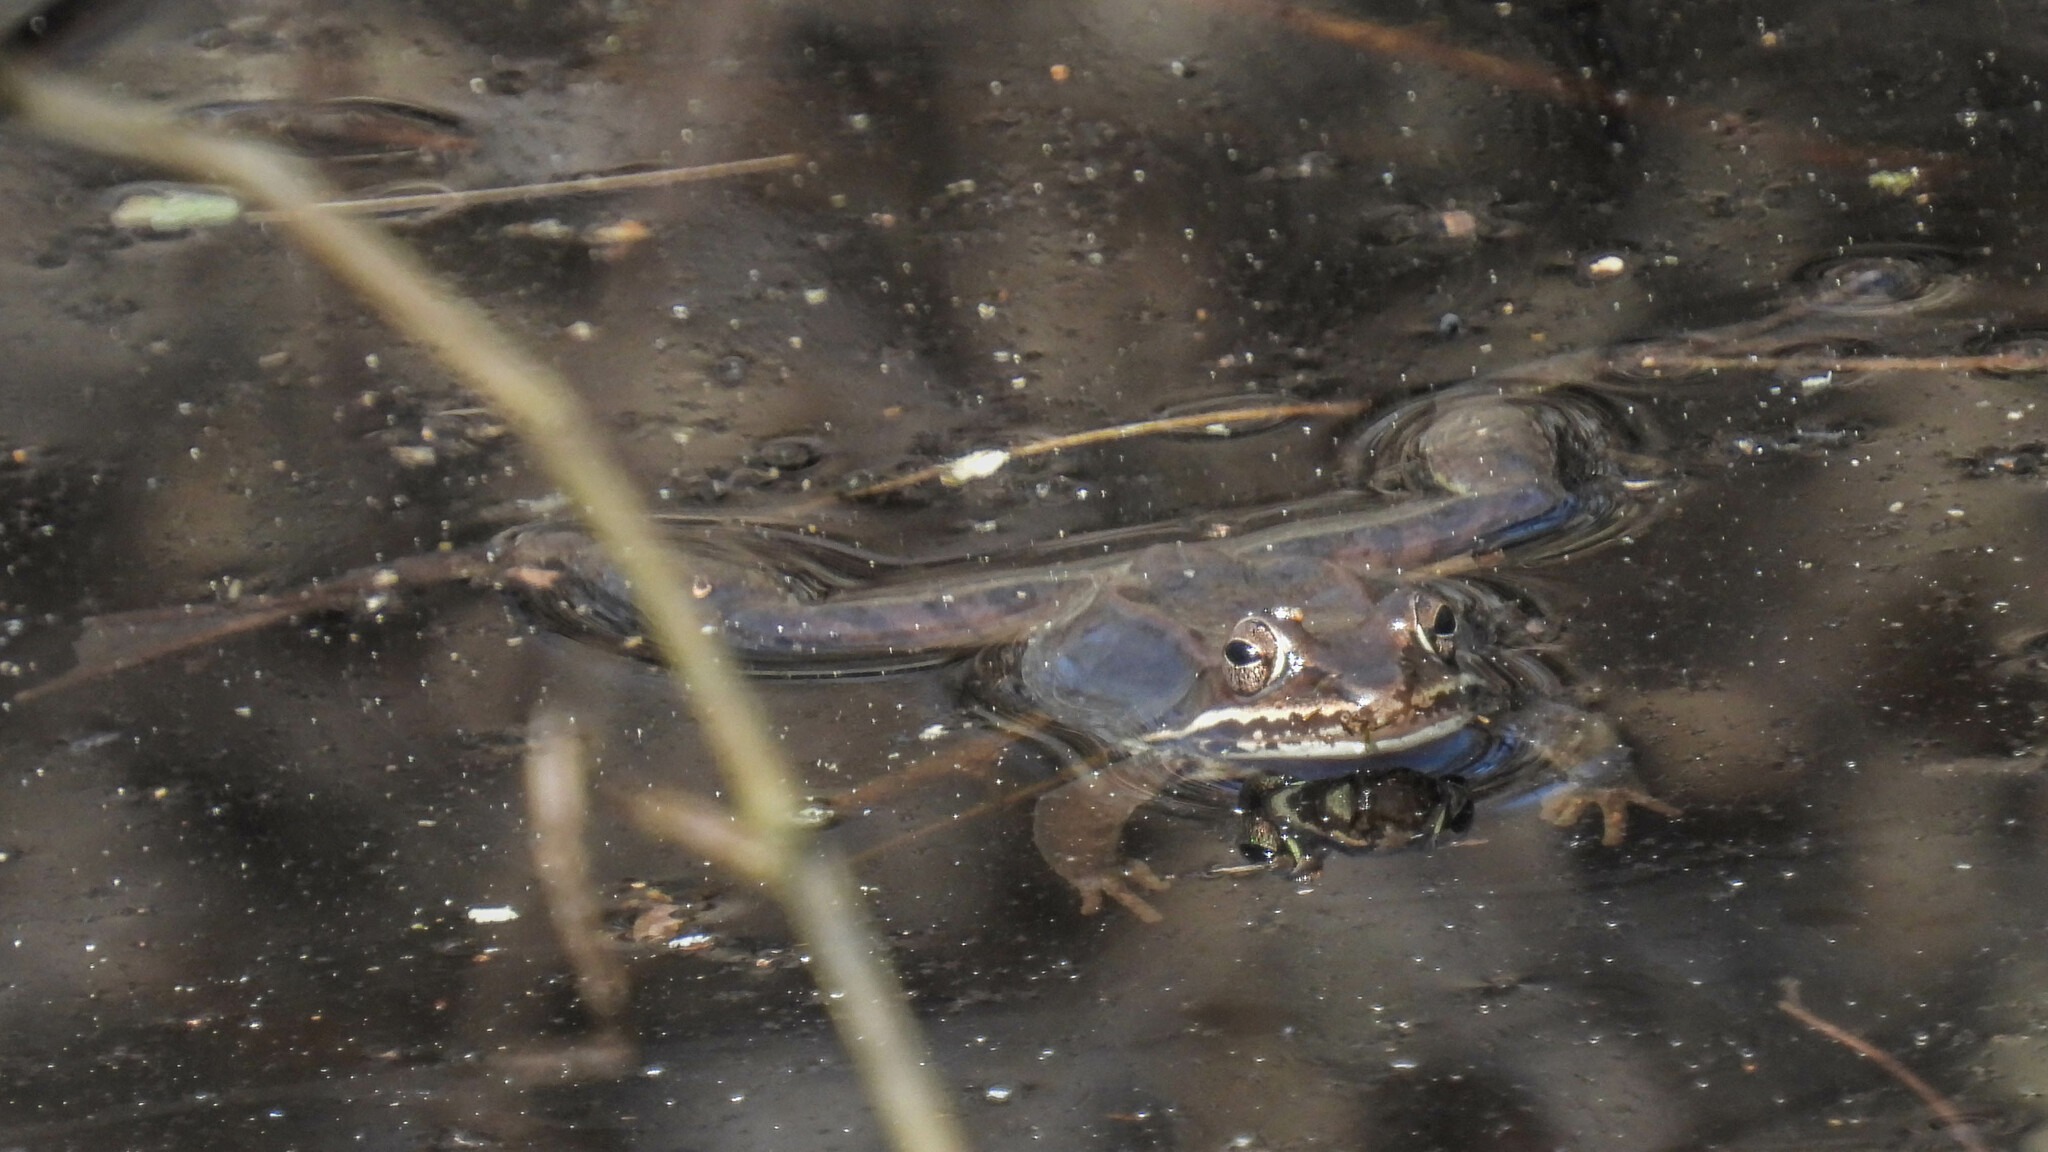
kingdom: Animalia
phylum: Chordata
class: Amphibia
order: Anura
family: Ranidae
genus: Lithobates
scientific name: Lithobates sylvaticus
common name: Wood frog
